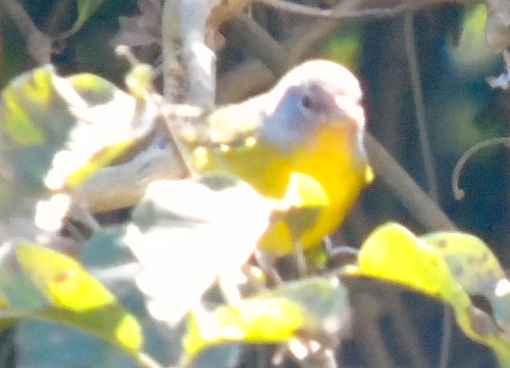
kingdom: Animalia
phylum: Chordata
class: Aves
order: Passeriformes
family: Parulidae
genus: Leiothlypis
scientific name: Leiothlypis celata
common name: Orange-crowned warbler
